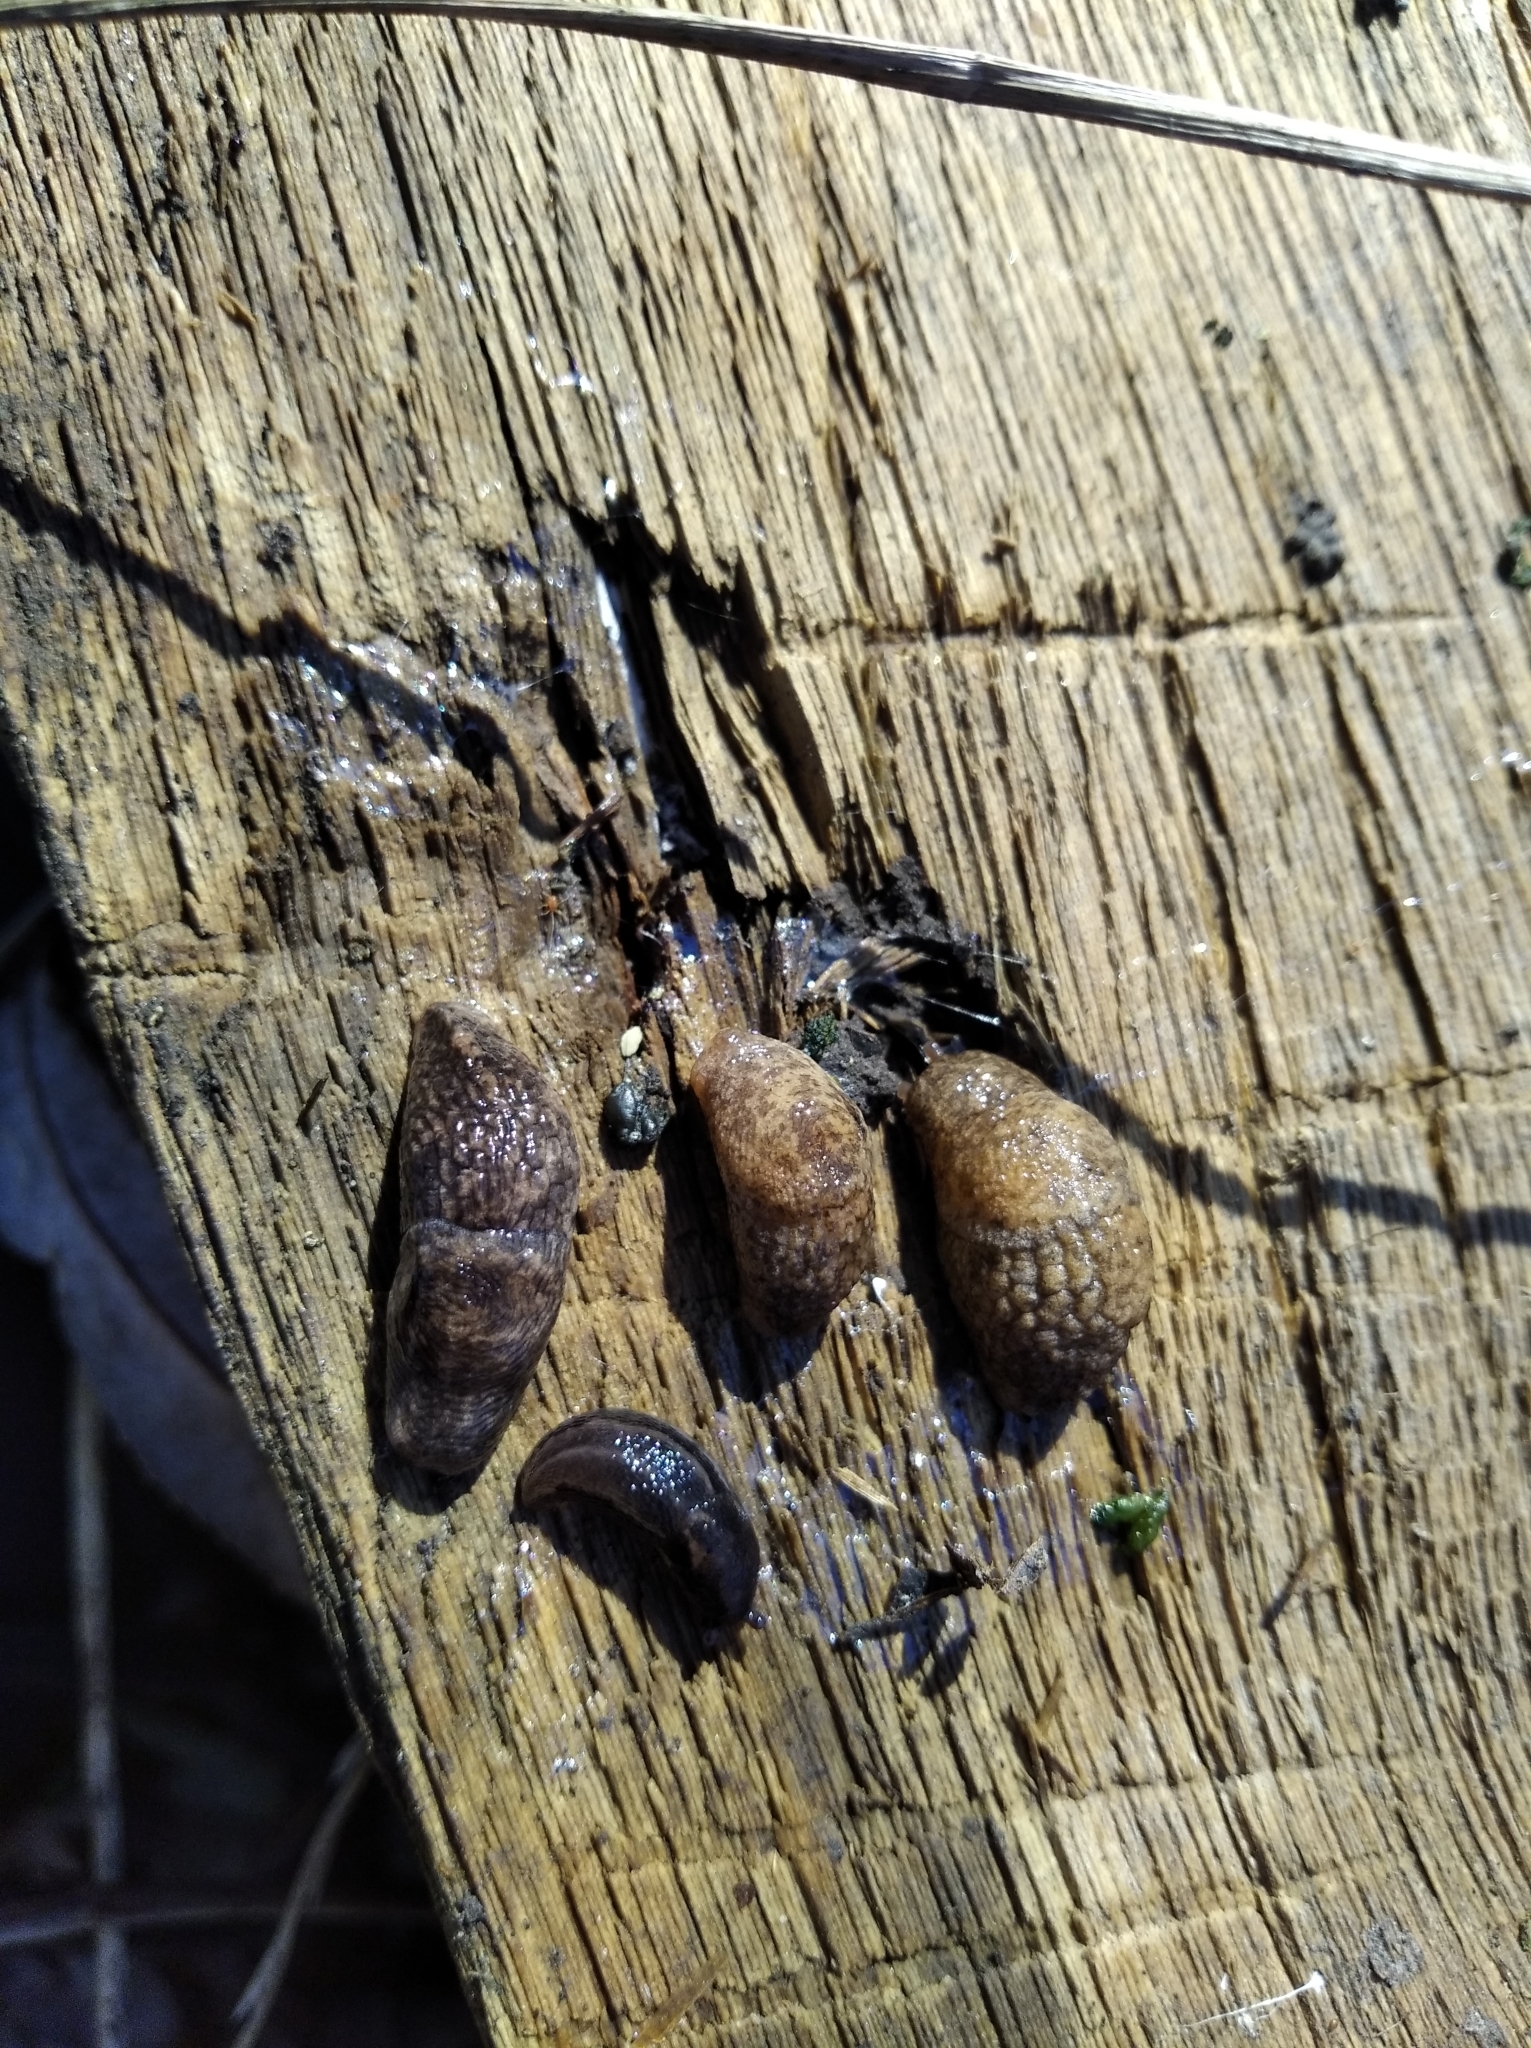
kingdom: Animalia
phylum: Mollusca
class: Gastropoda
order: Stylommatophora
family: Agriolimacidae
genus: Deroceras
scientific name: Deroceras reticulatum
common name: Gray field slug
